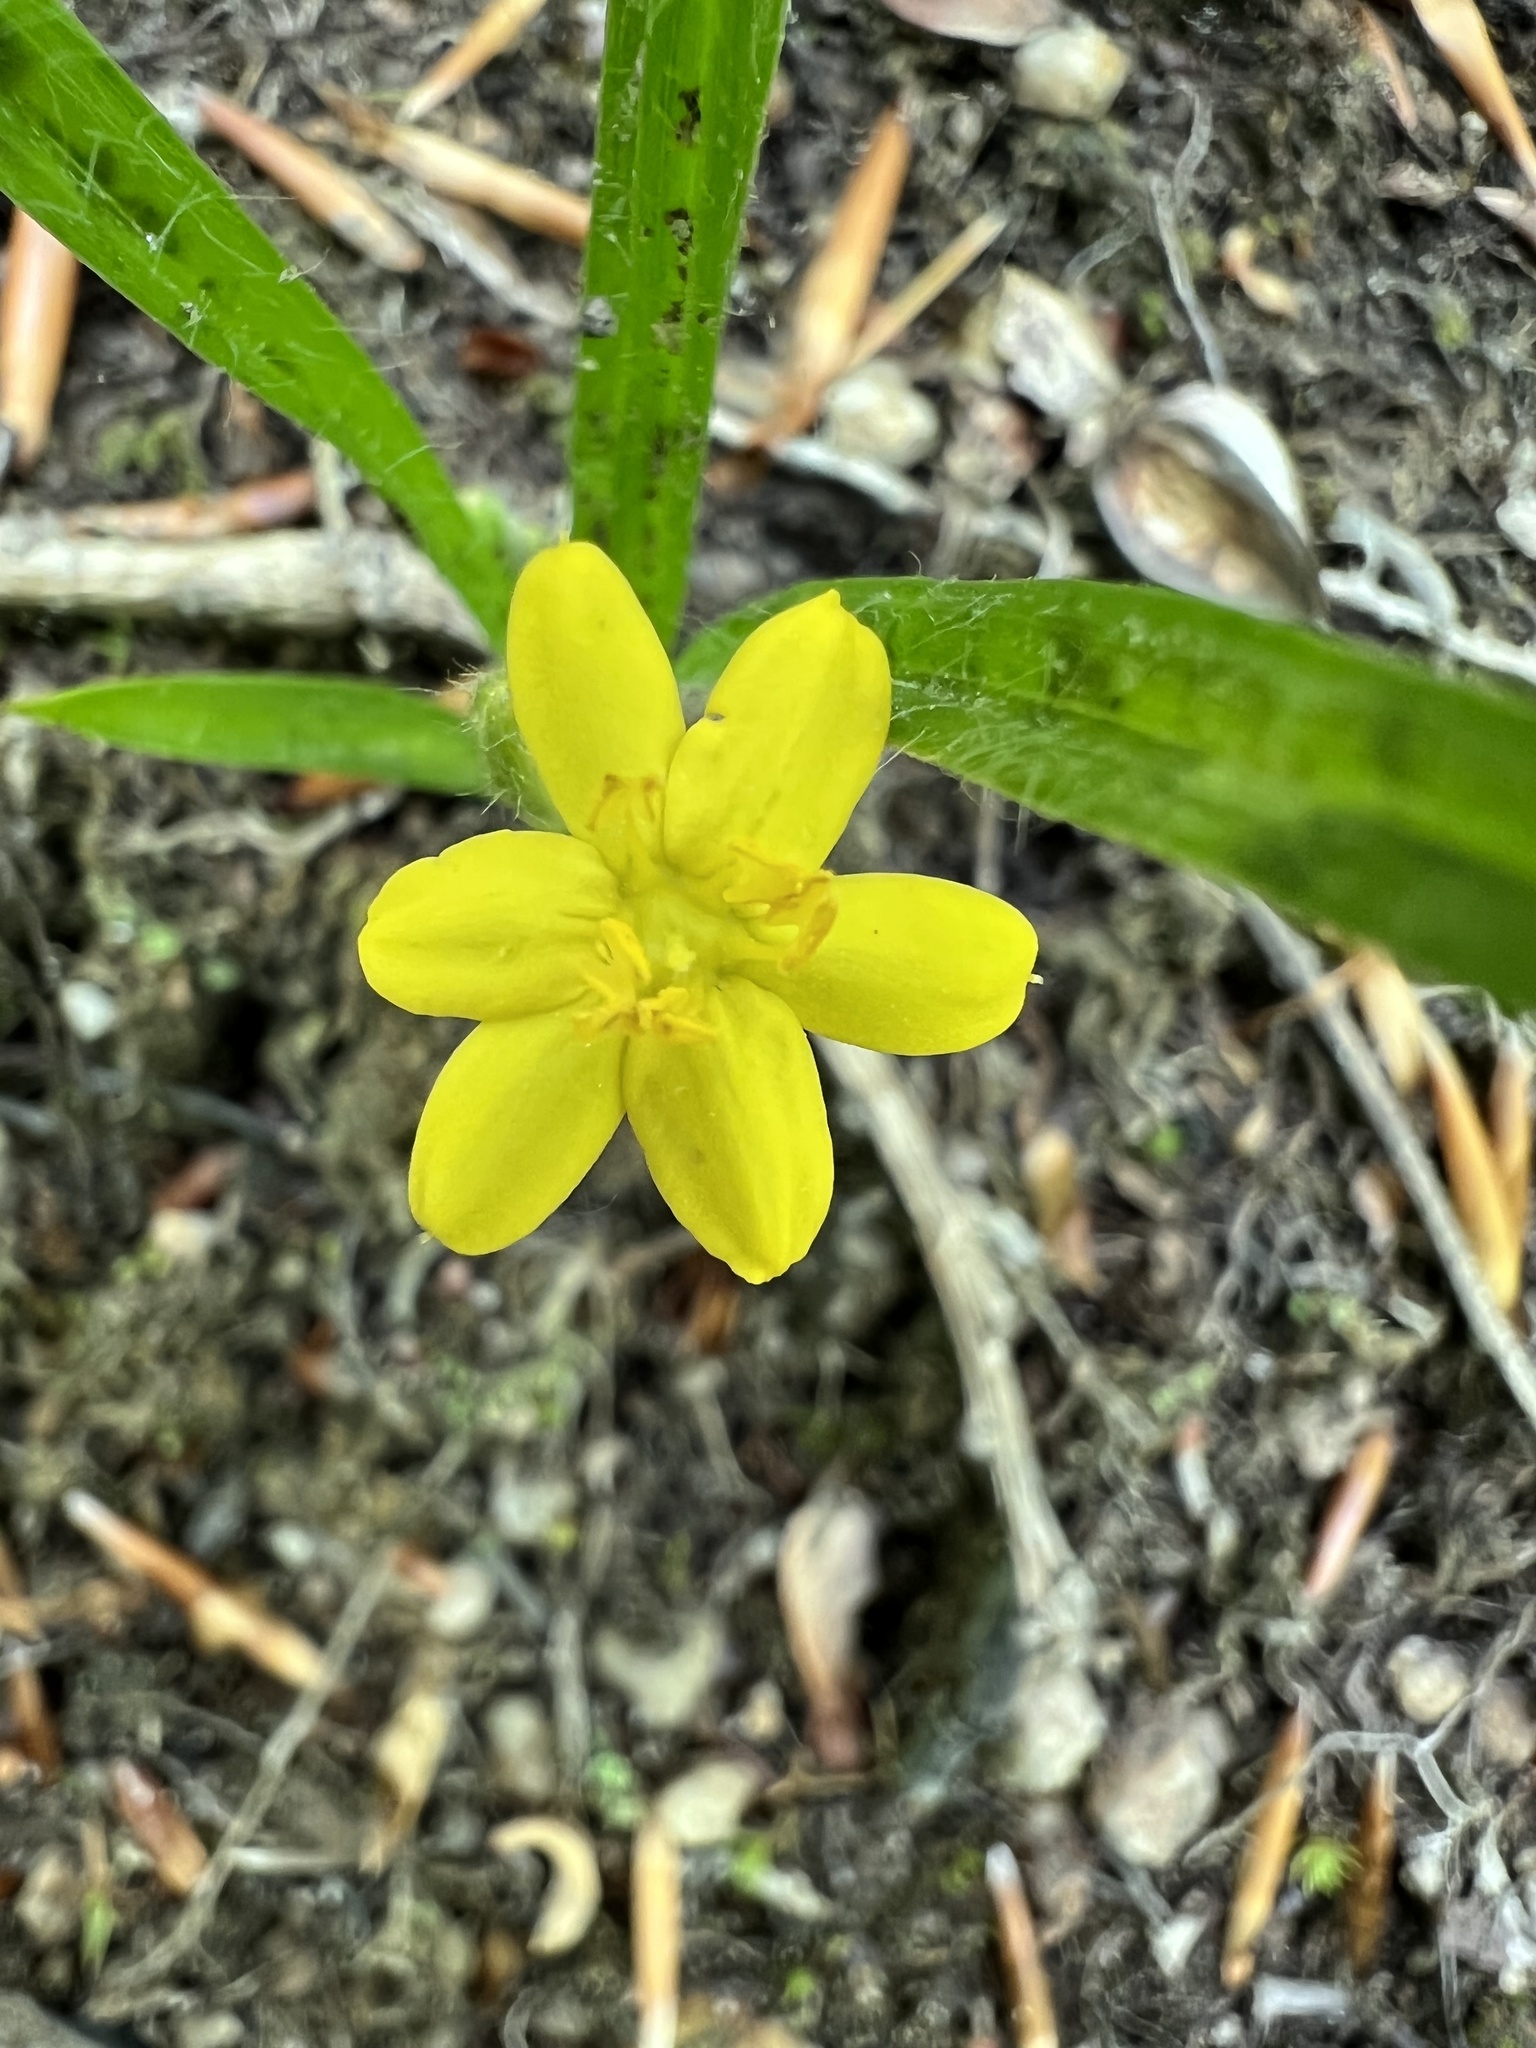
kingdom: Plantae
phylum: Tracheophyta
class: Liliopsida
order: Asparagales
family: Hypoxidaceae
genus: Hypoxis
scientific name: Hypoxis hirsuta
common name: Common goldstar
